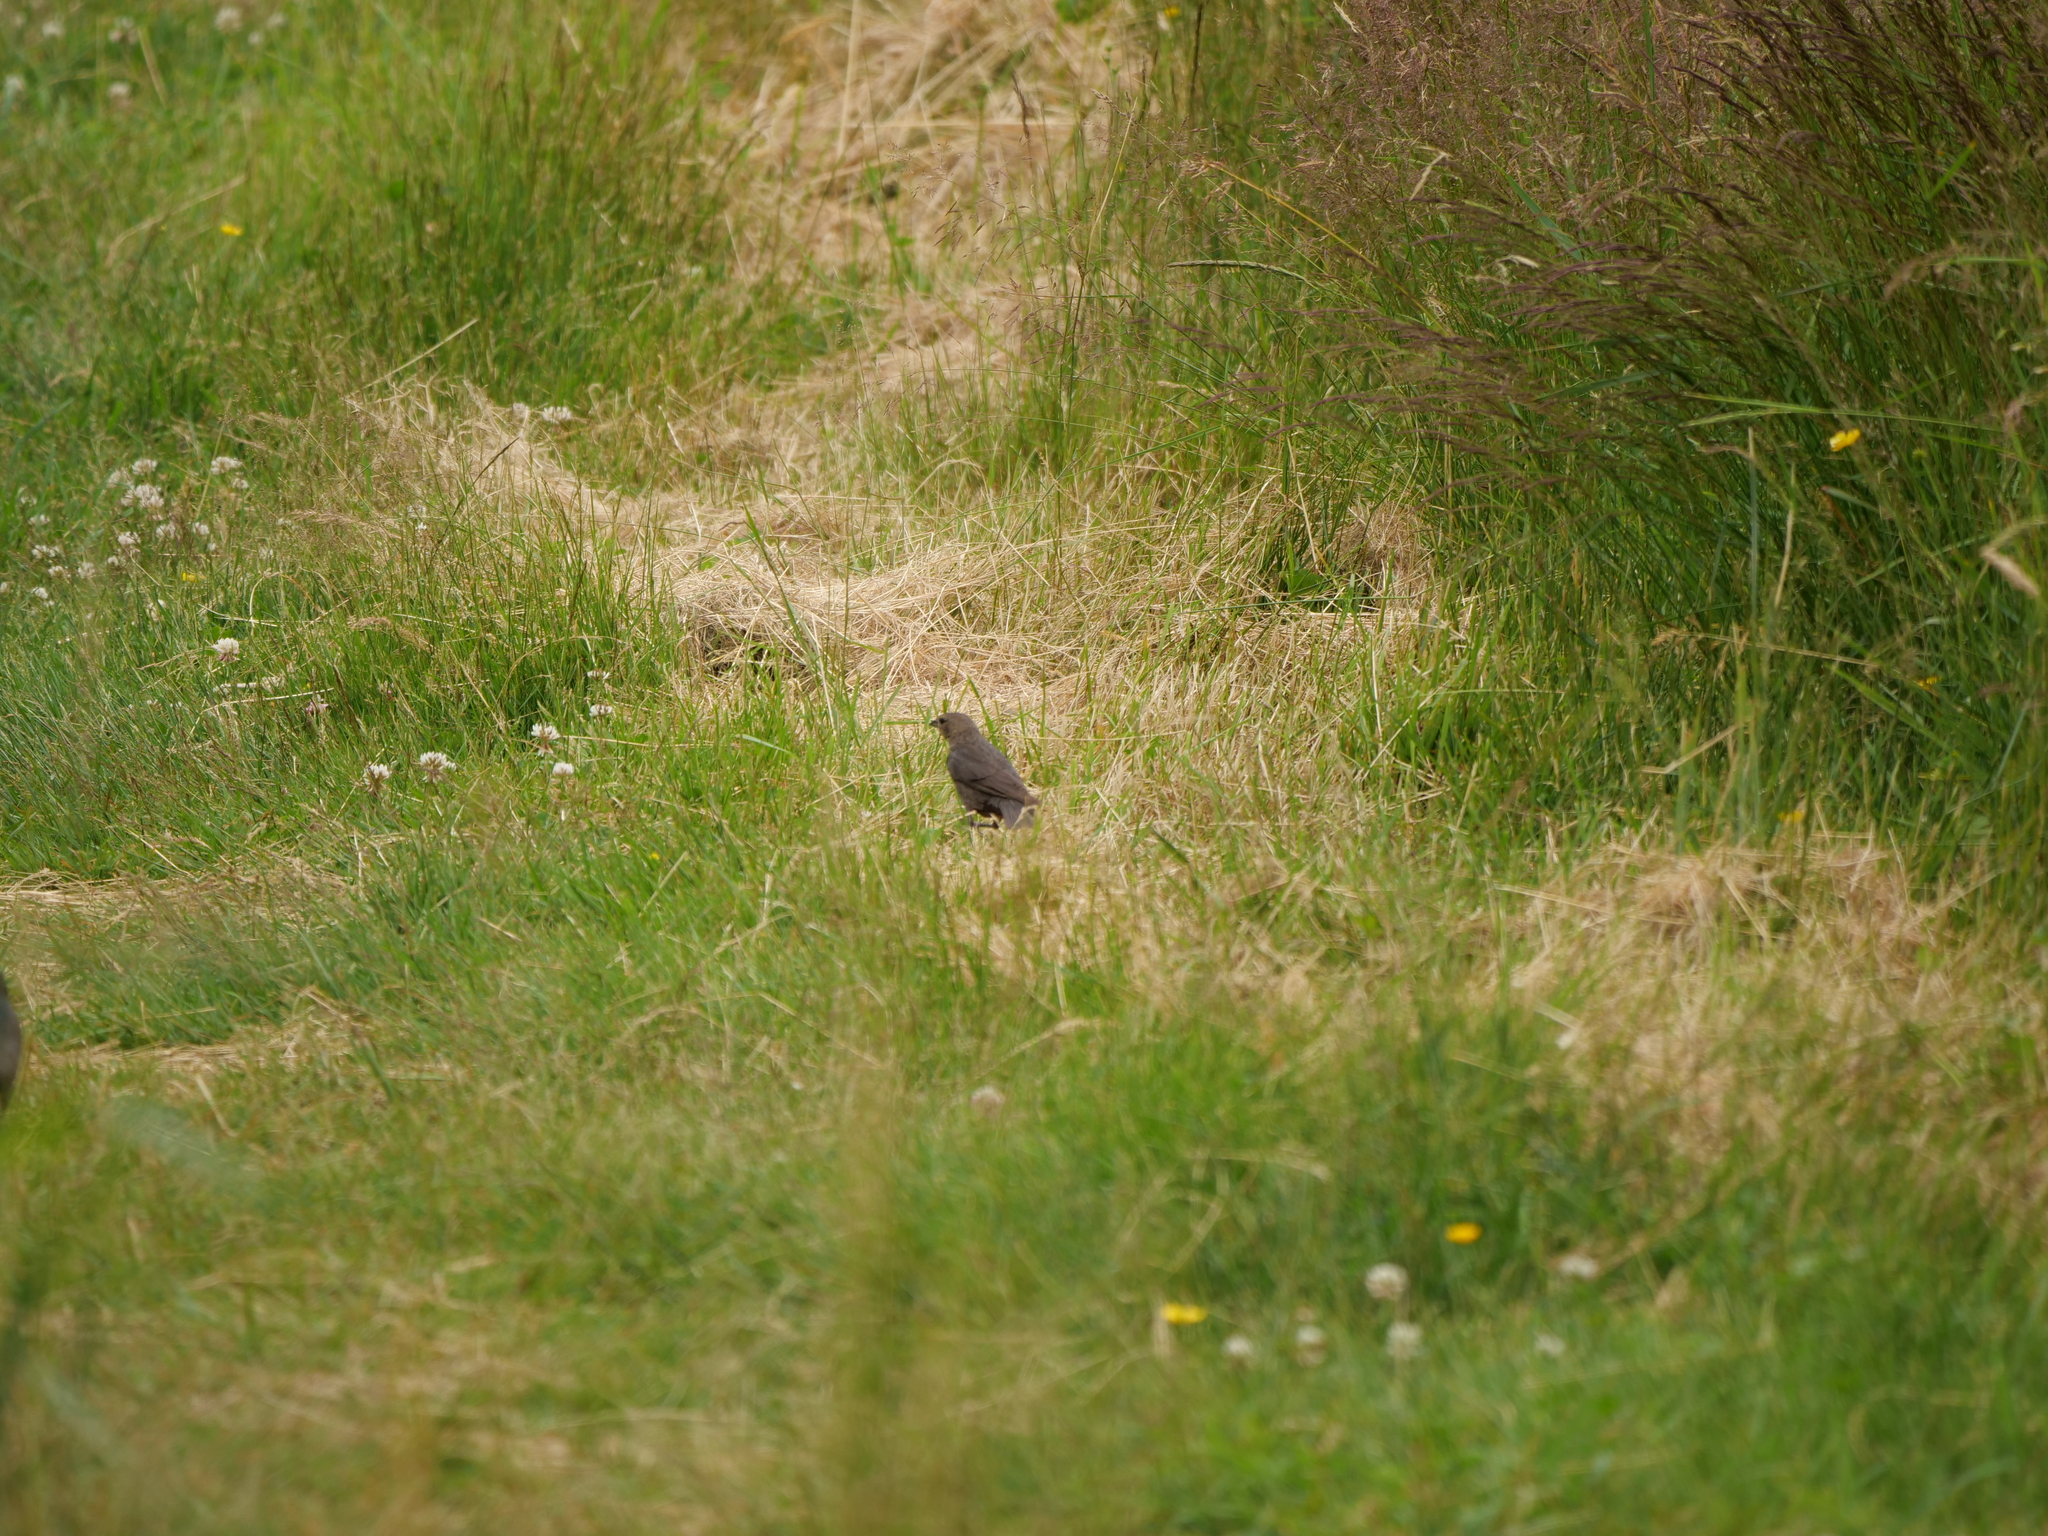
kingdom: Animalia
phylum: Chordata
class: Aves
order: Passeriformes
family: Icteridae
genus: Molothrus
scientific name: Molothrus ater
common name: Brown-headed cowbird
